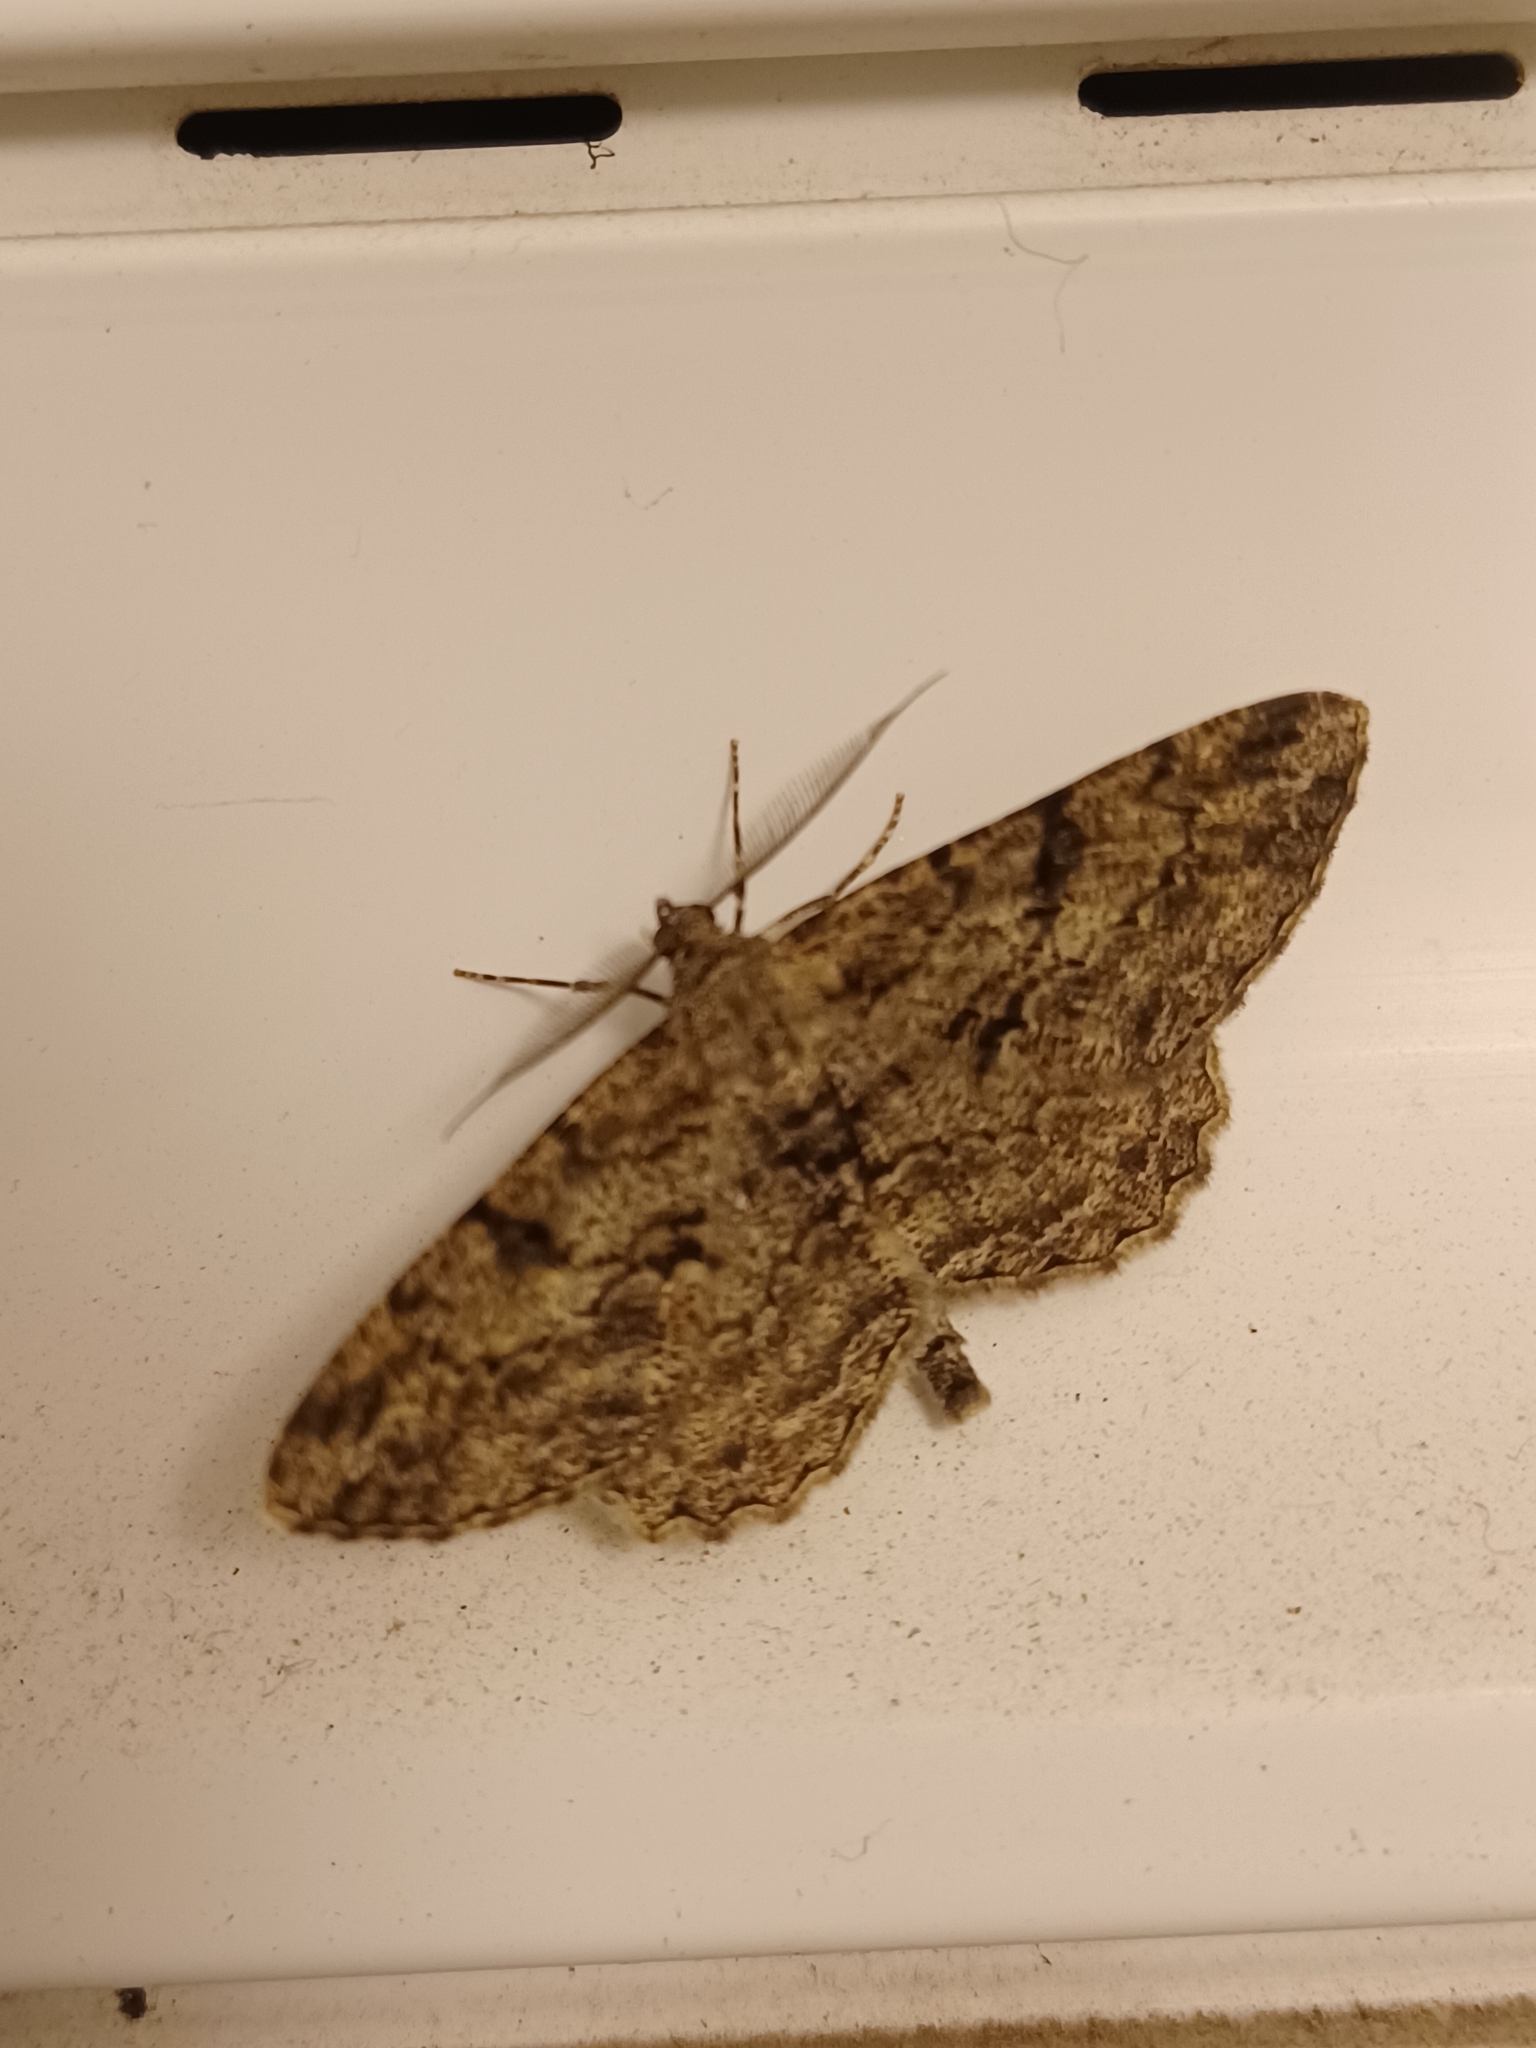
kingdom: Animalia
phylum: Arthropoda
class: Insecta
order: Lepidoptera
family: Geometridae
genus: Peribatodes
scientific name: Peribatodes rhomboidaria
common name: Willow beauty
